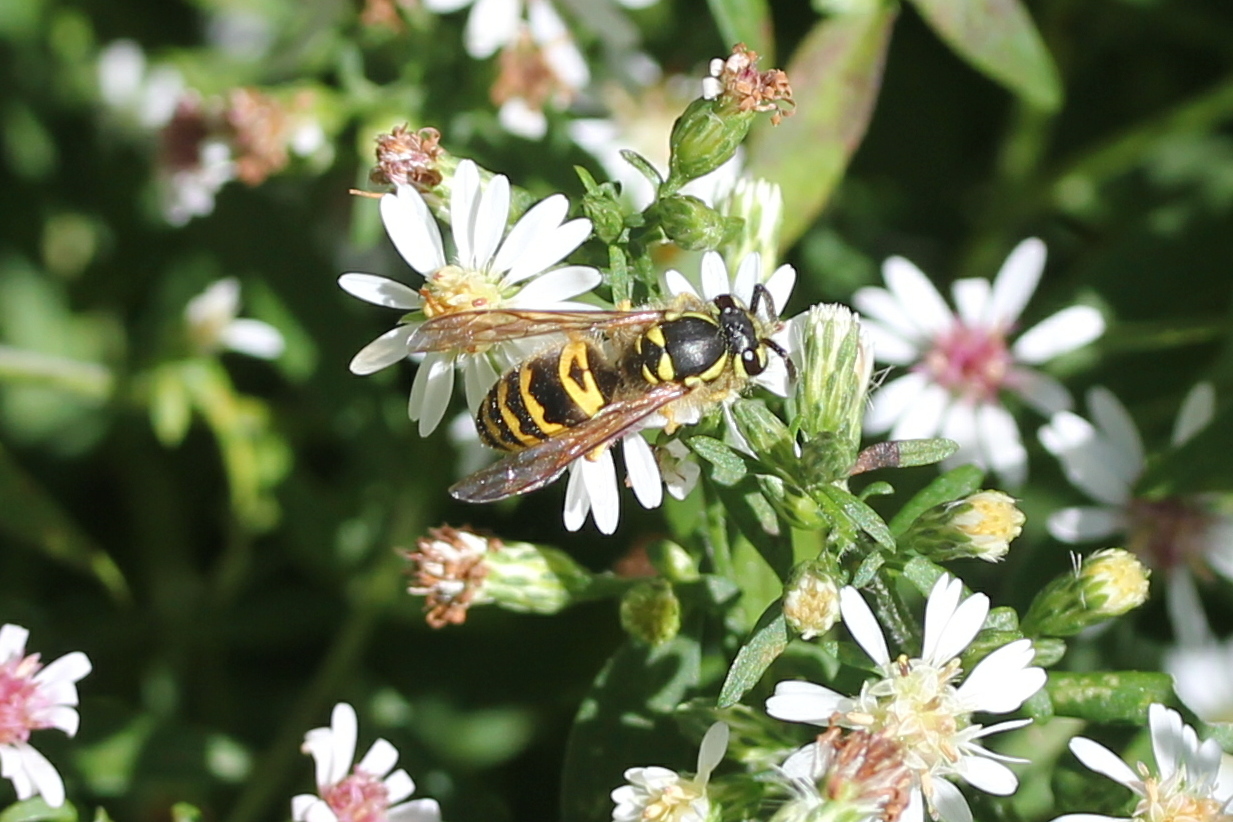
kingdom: Animalia
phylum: Arthropoda
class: Insecta
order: Hymenoptera
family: Vespidae
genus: Vespula
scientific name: Vespula maculifrons
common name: Eastern yellowjacket
